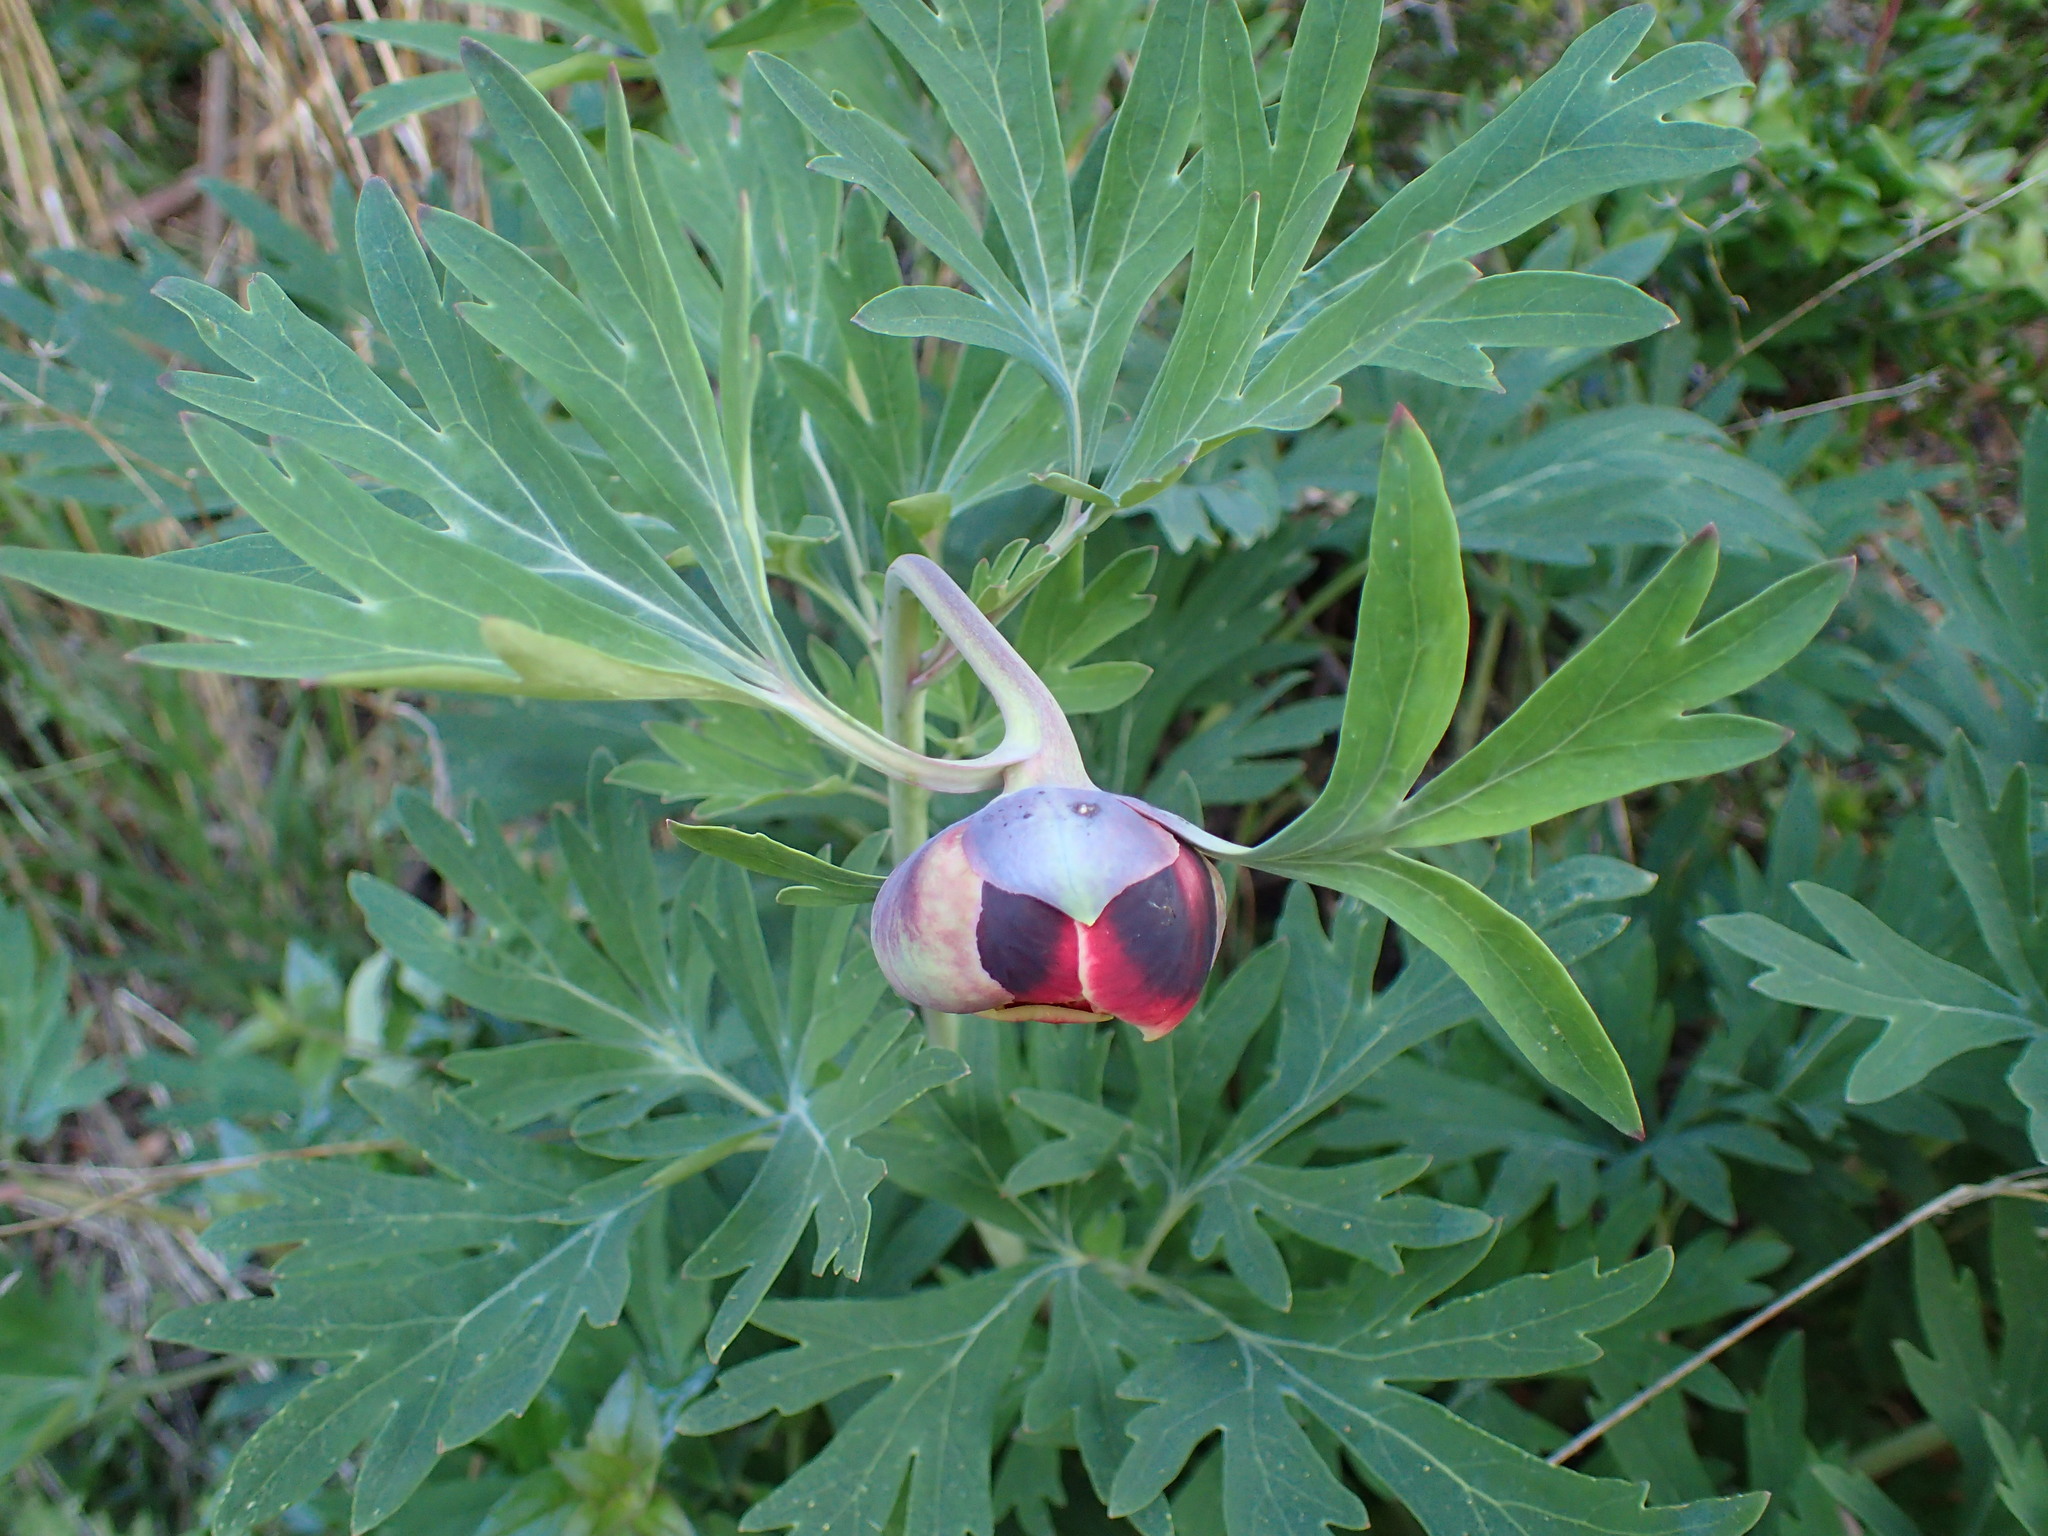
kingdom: Plantae
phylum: Tracheophyta
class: Magnoliopsida
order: Saxifragales
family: Paeoniaceae
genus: Paeonia
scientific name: Paeonia californica
